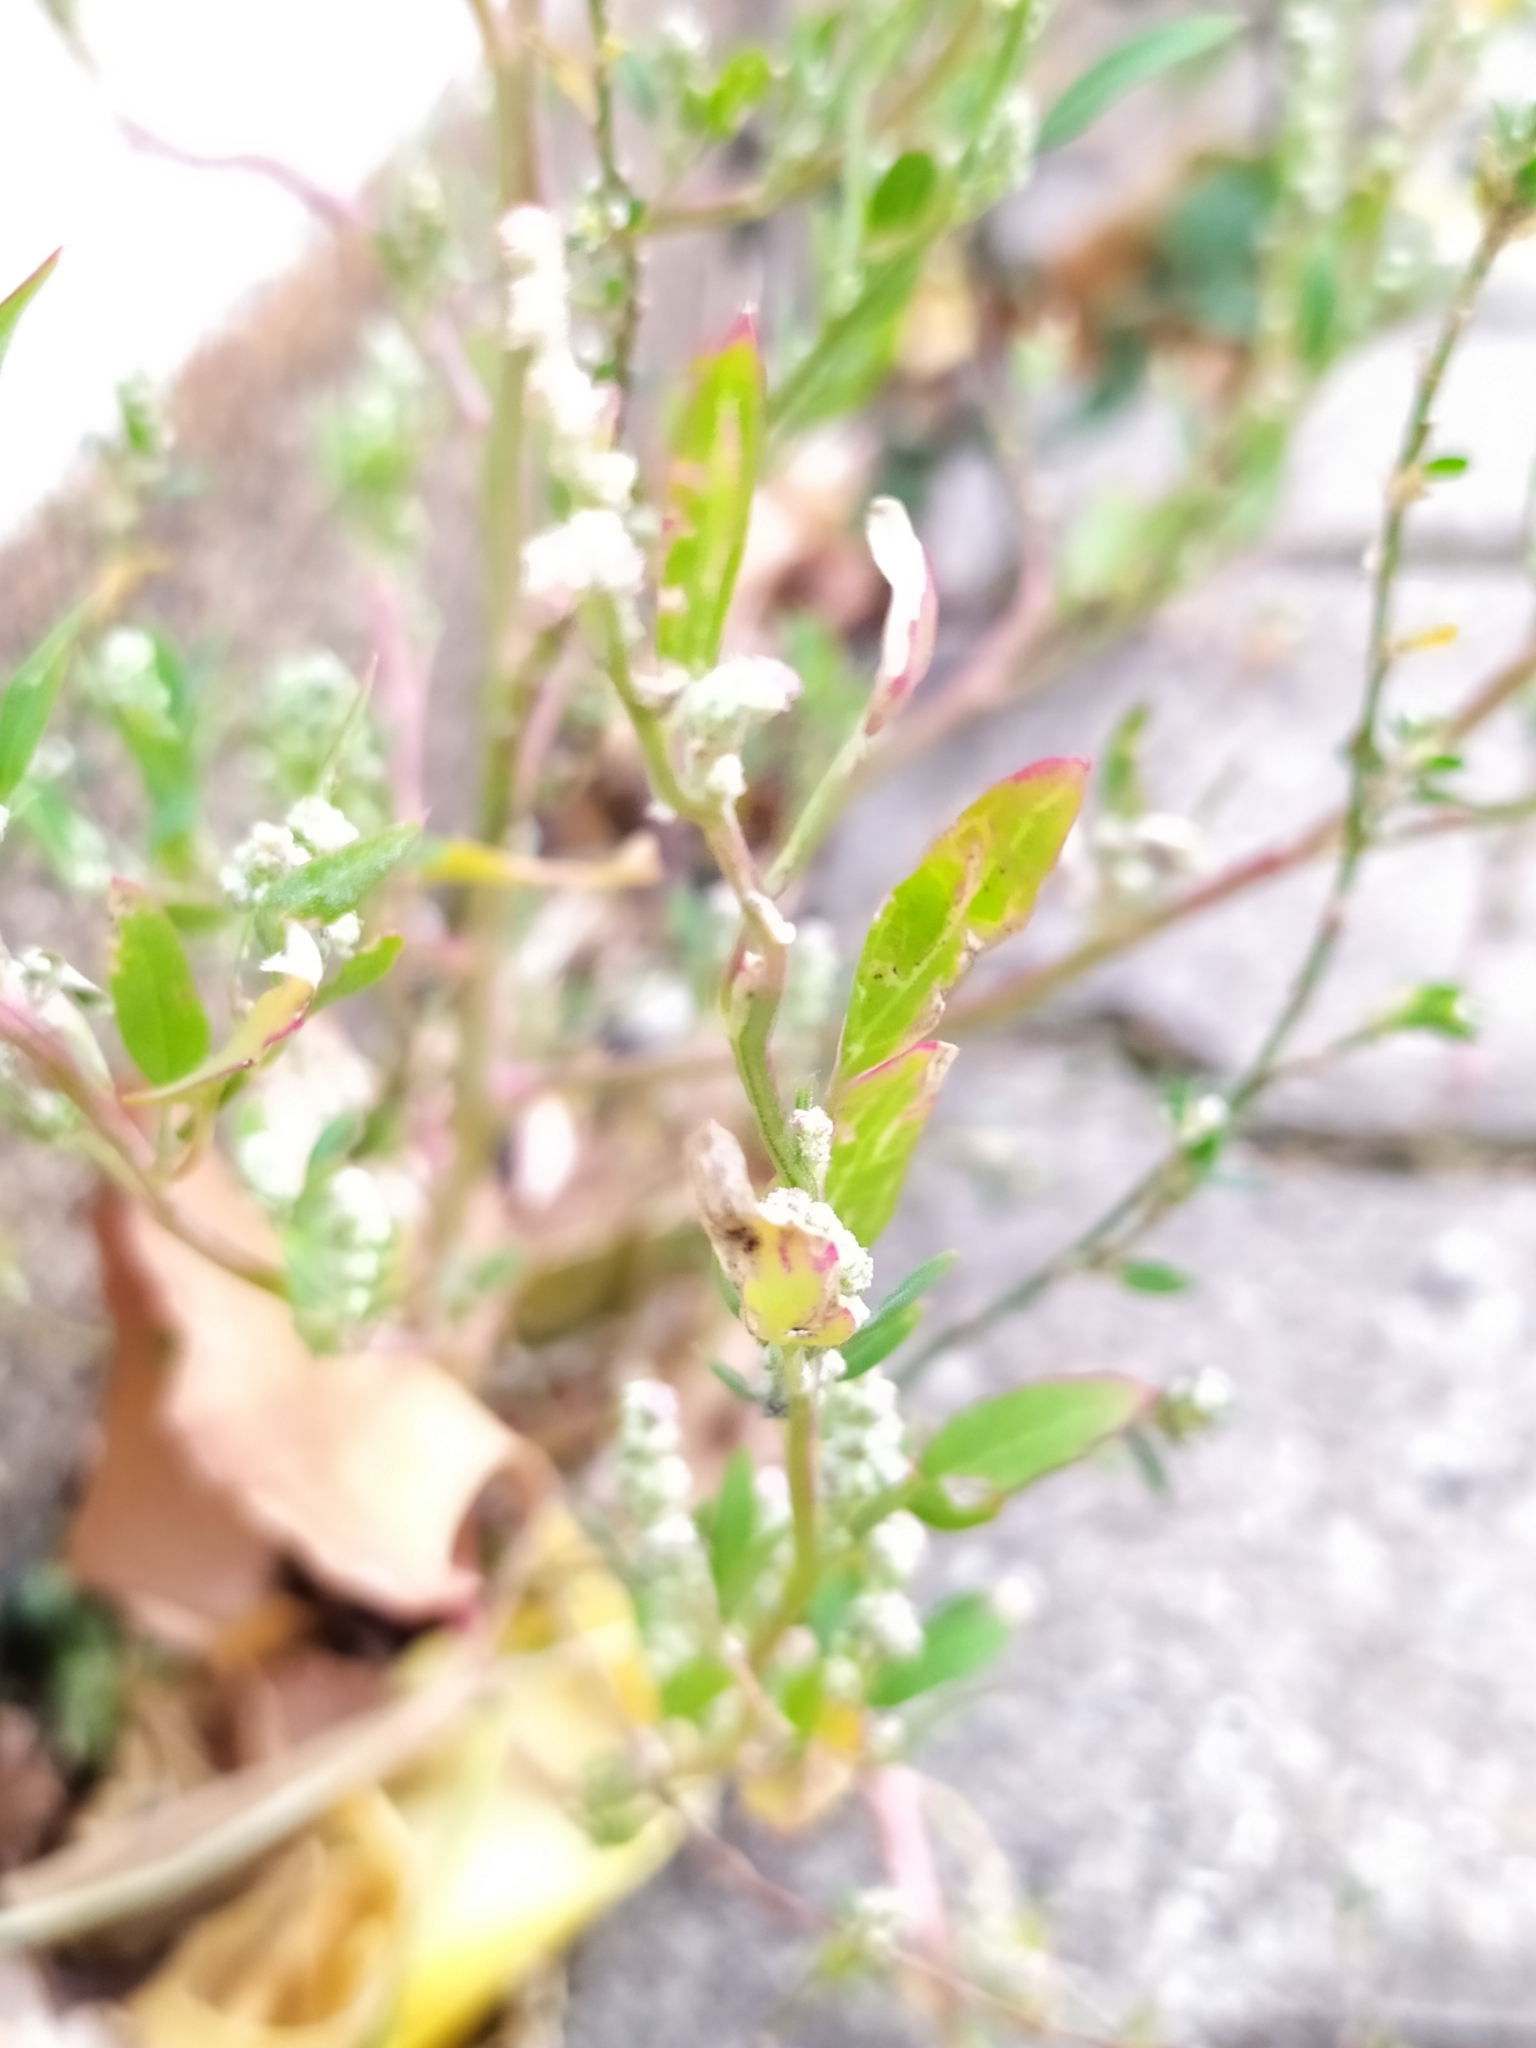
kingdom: Plantae
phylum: Tracheophyta
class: Magnoliopsida
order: Caryophyllales
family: Amaranthaceae
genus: Chenopodium
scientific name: Chenopodium betaceum
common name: Striped goosefoot
